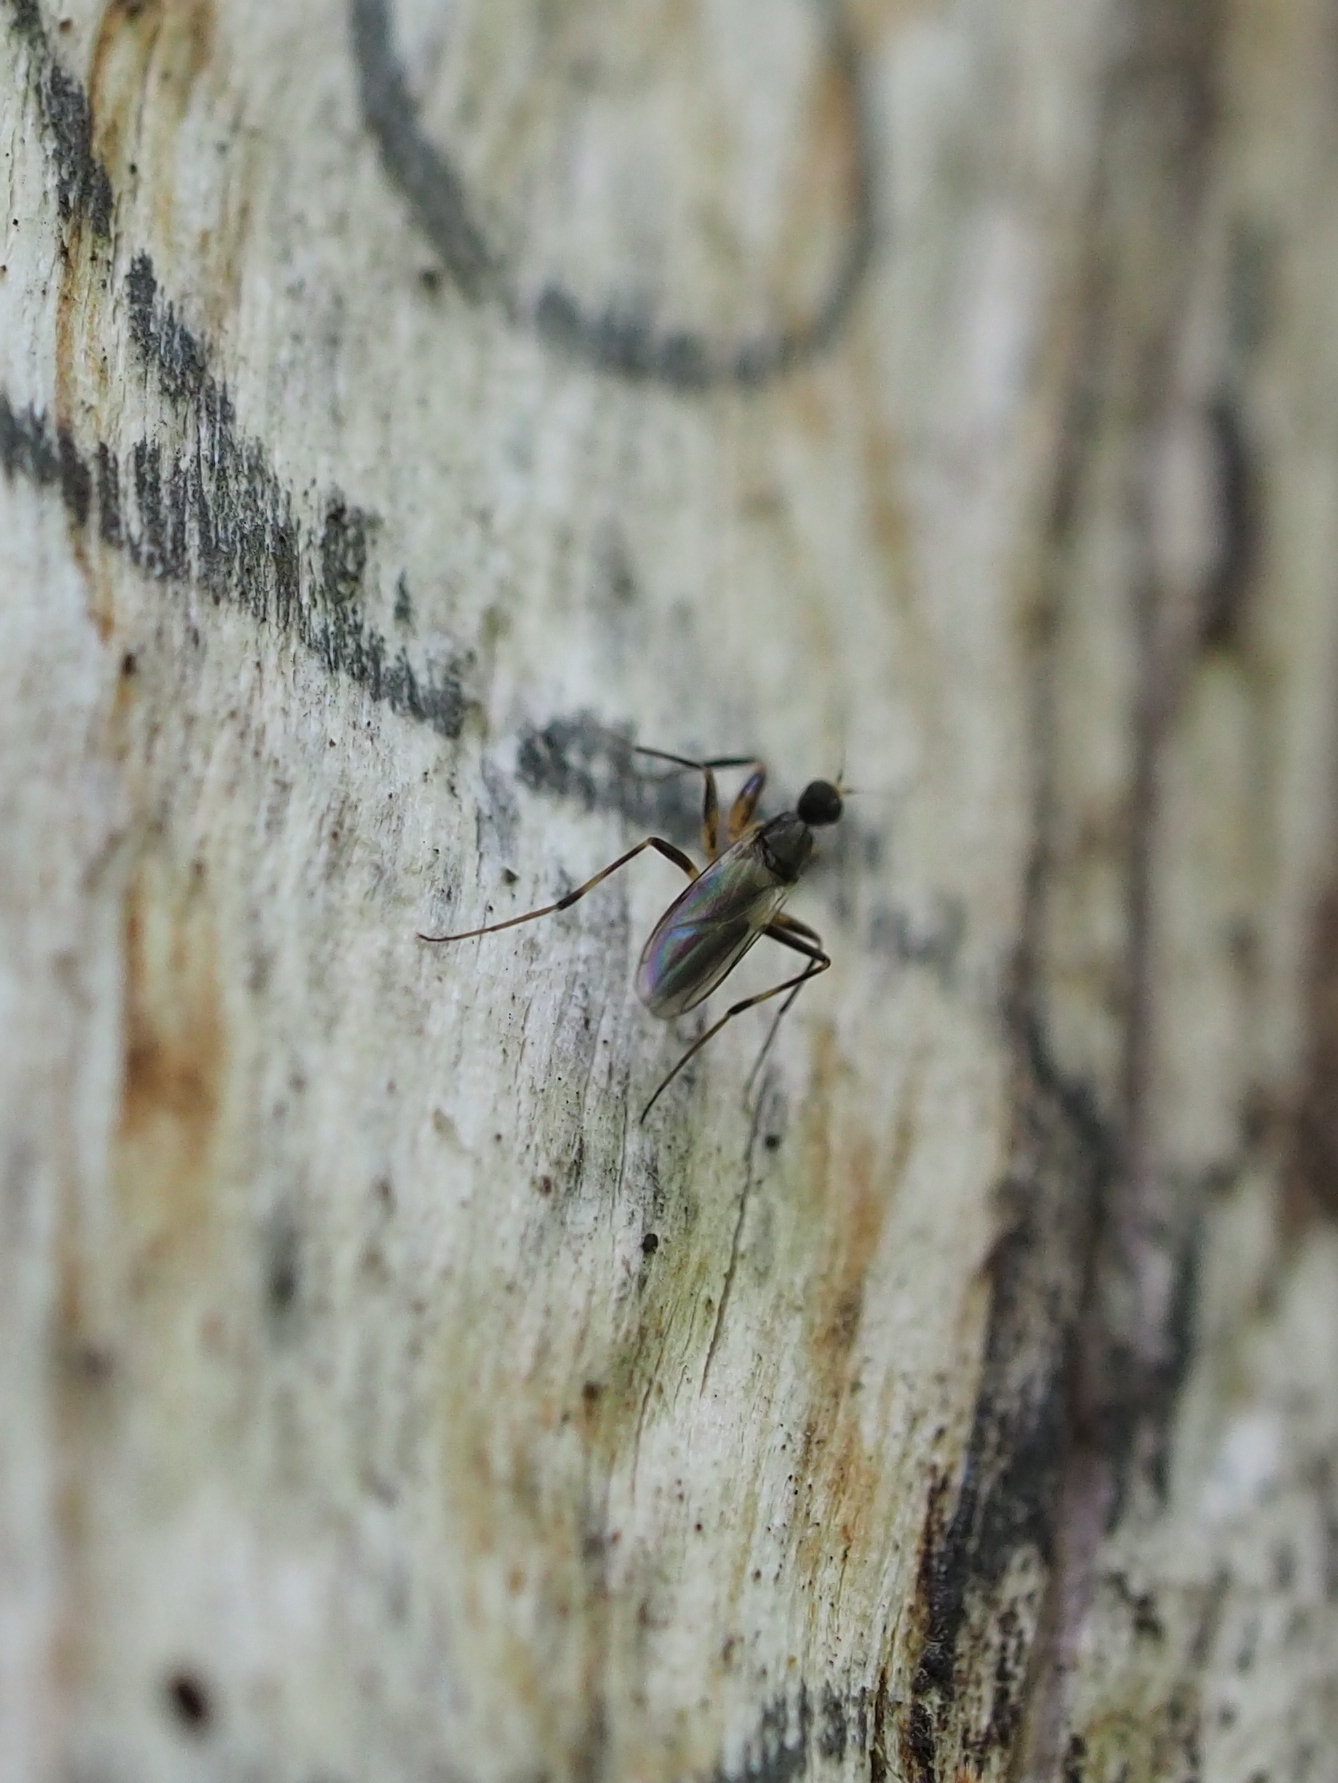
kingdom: Animalia
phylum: Arthropoda
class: Insecta
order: Diptera
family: Hybotidae
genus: Tachypeza
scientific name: Tachypeza nubila
